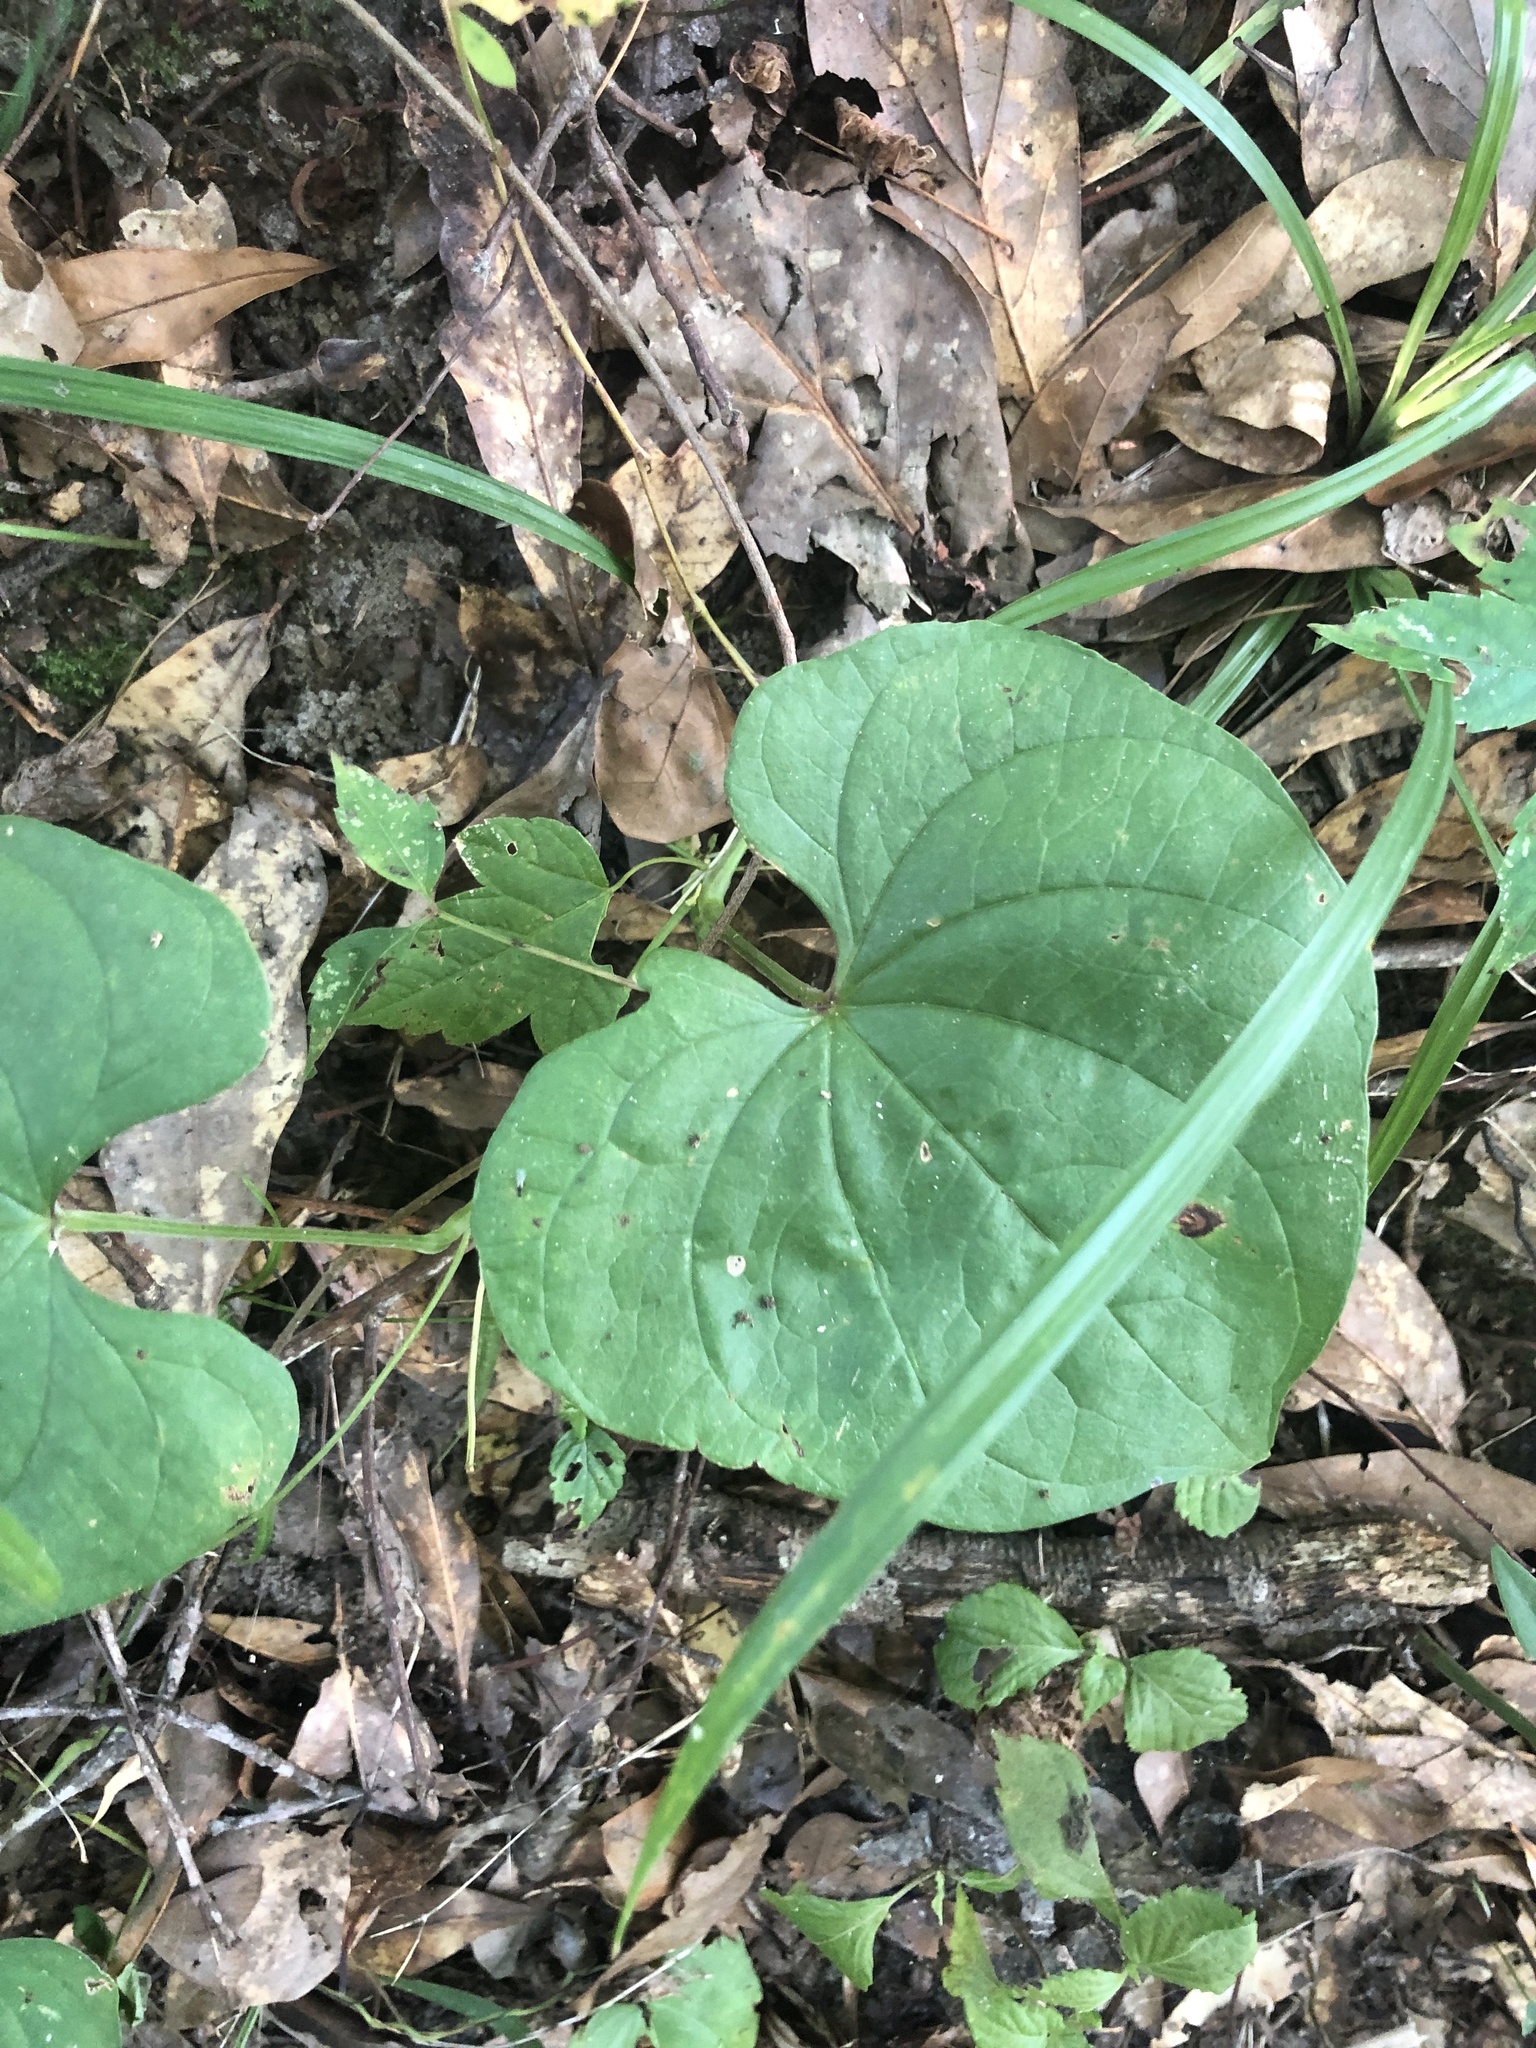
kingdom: Plantae
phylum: Tracheophyta
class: Liliopsida
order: Dioscoreales
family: Dioscoreaceae
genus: Dioscorea
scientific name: Dioscorea polystachya
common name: Chinese yam
